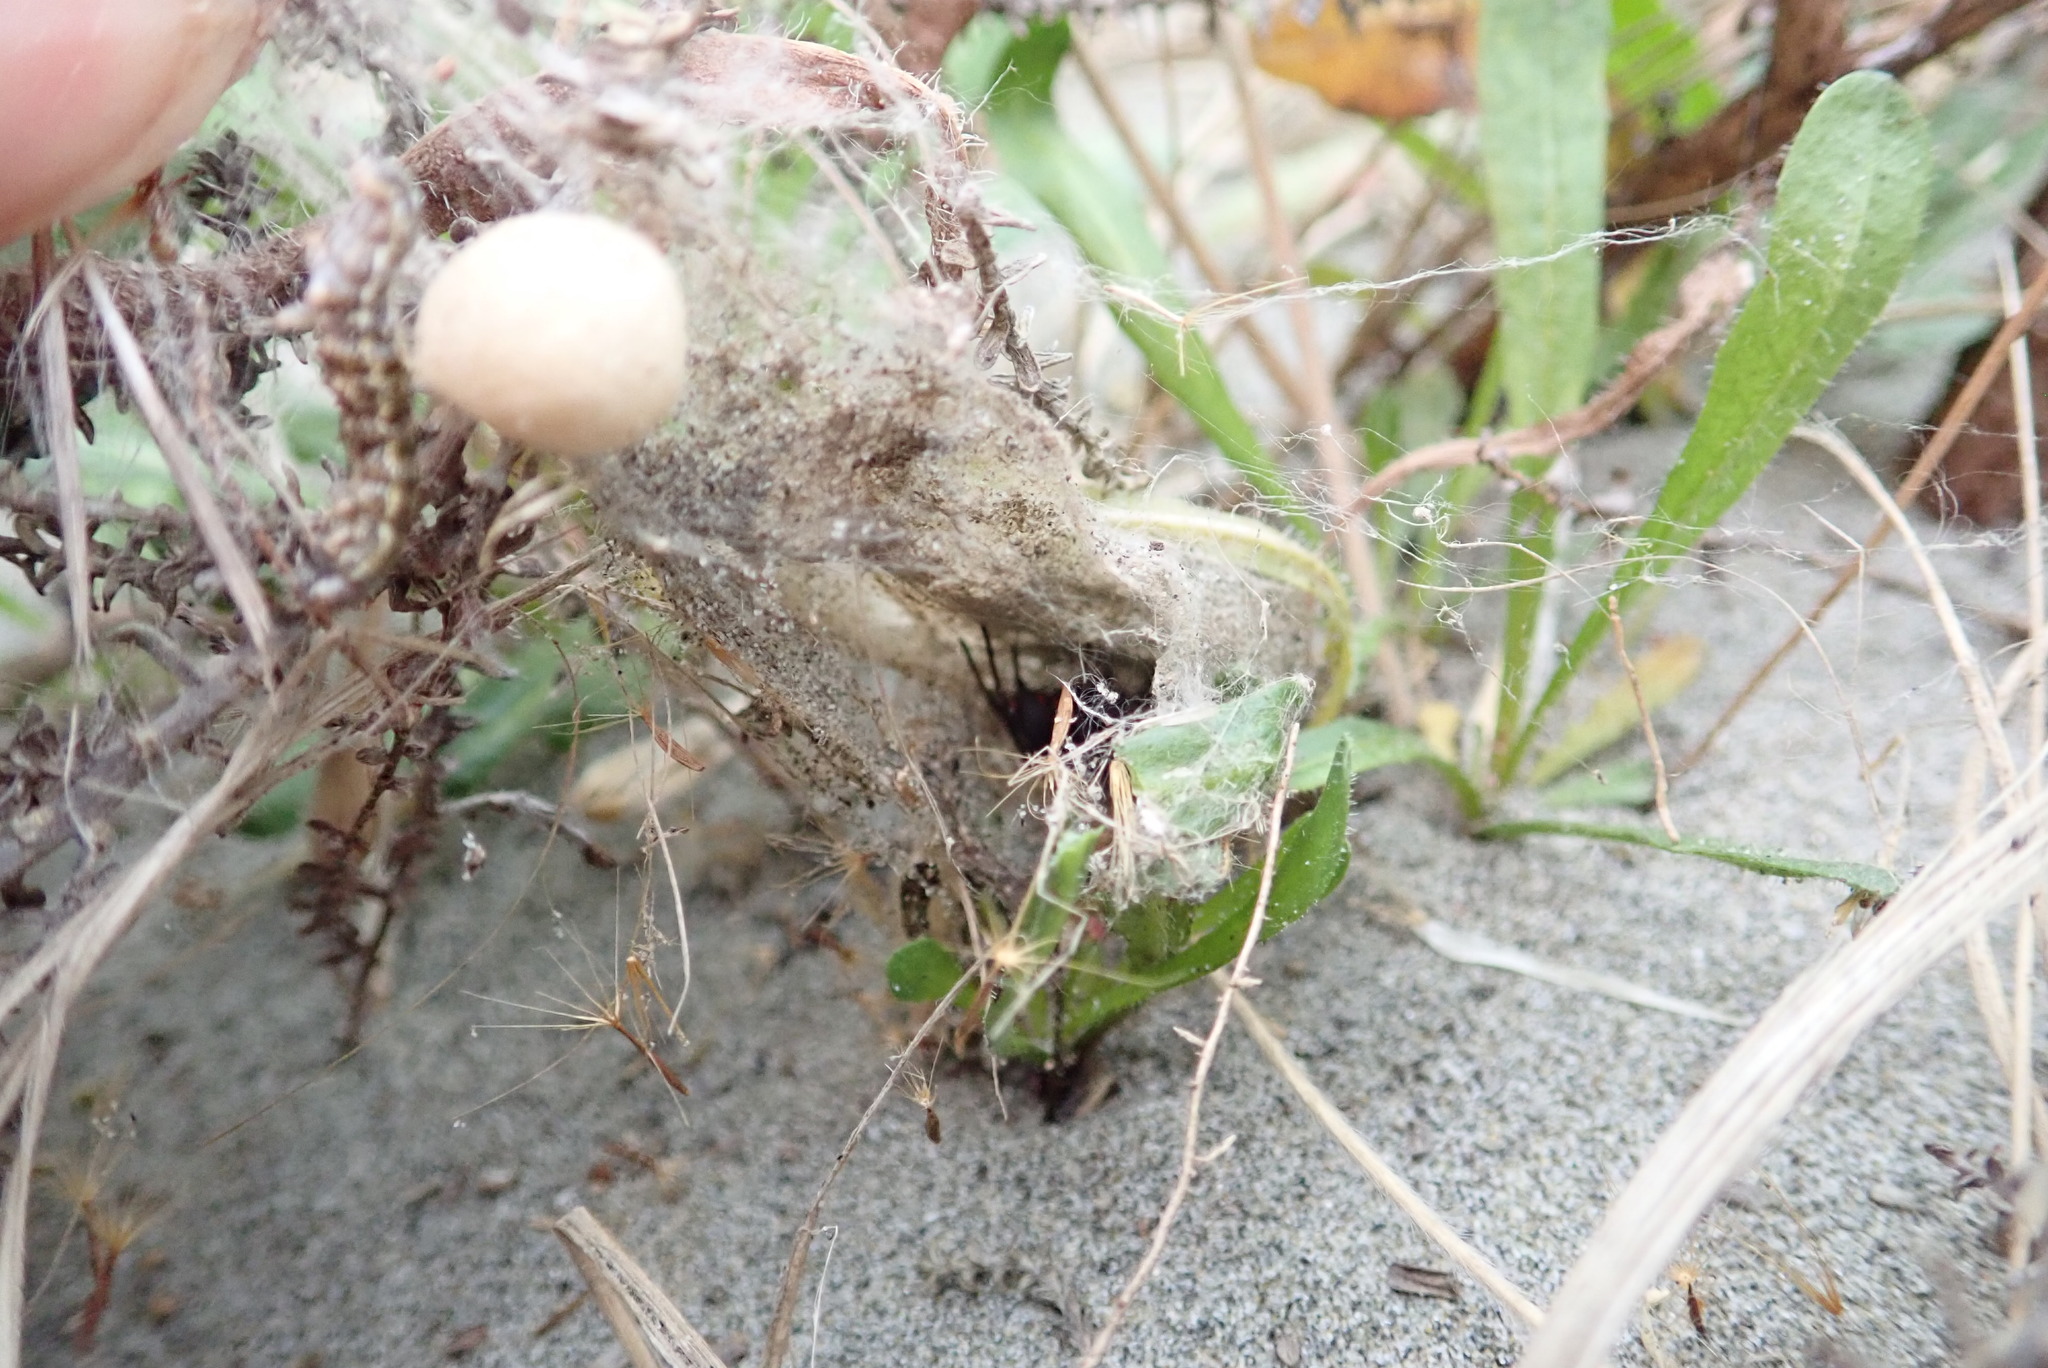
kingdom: Animalia
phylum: Arthropoda
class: Arachnida
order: Araneae
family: Theridiidae
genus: Latrodectus
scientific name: Latrodectus katipo
